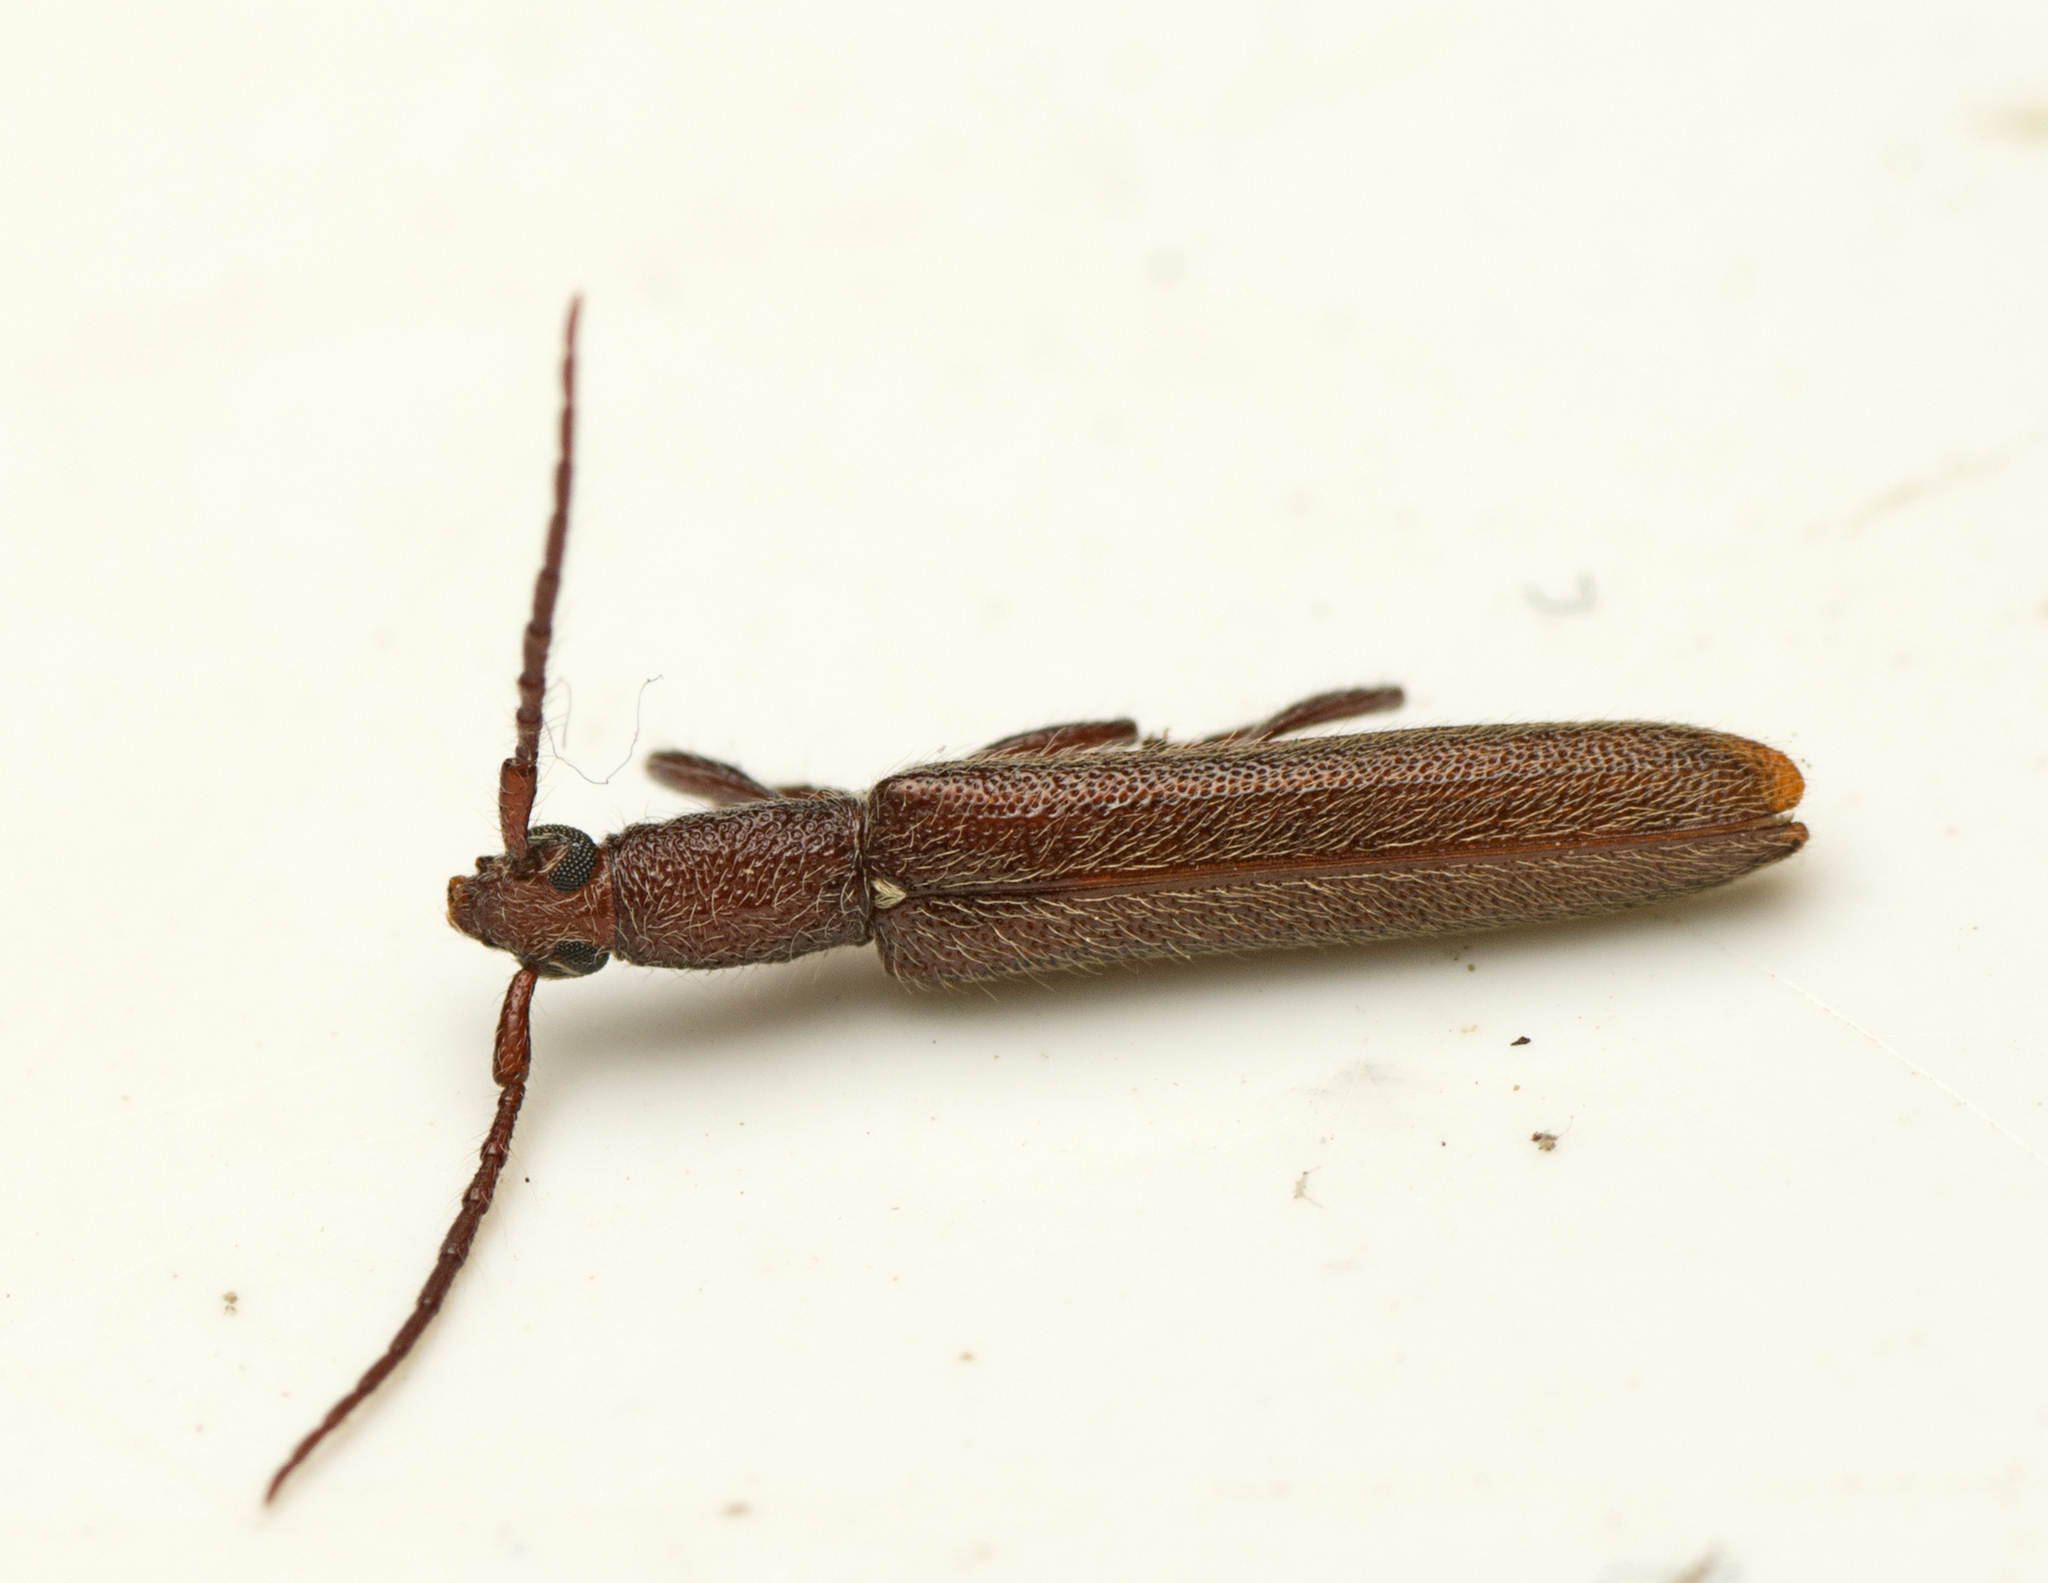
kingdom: Animalia
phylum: Arthropoda
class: Insecta
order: Coleoptera
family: Cerambycidae
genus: Bebius
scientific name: Bebius filiformis
